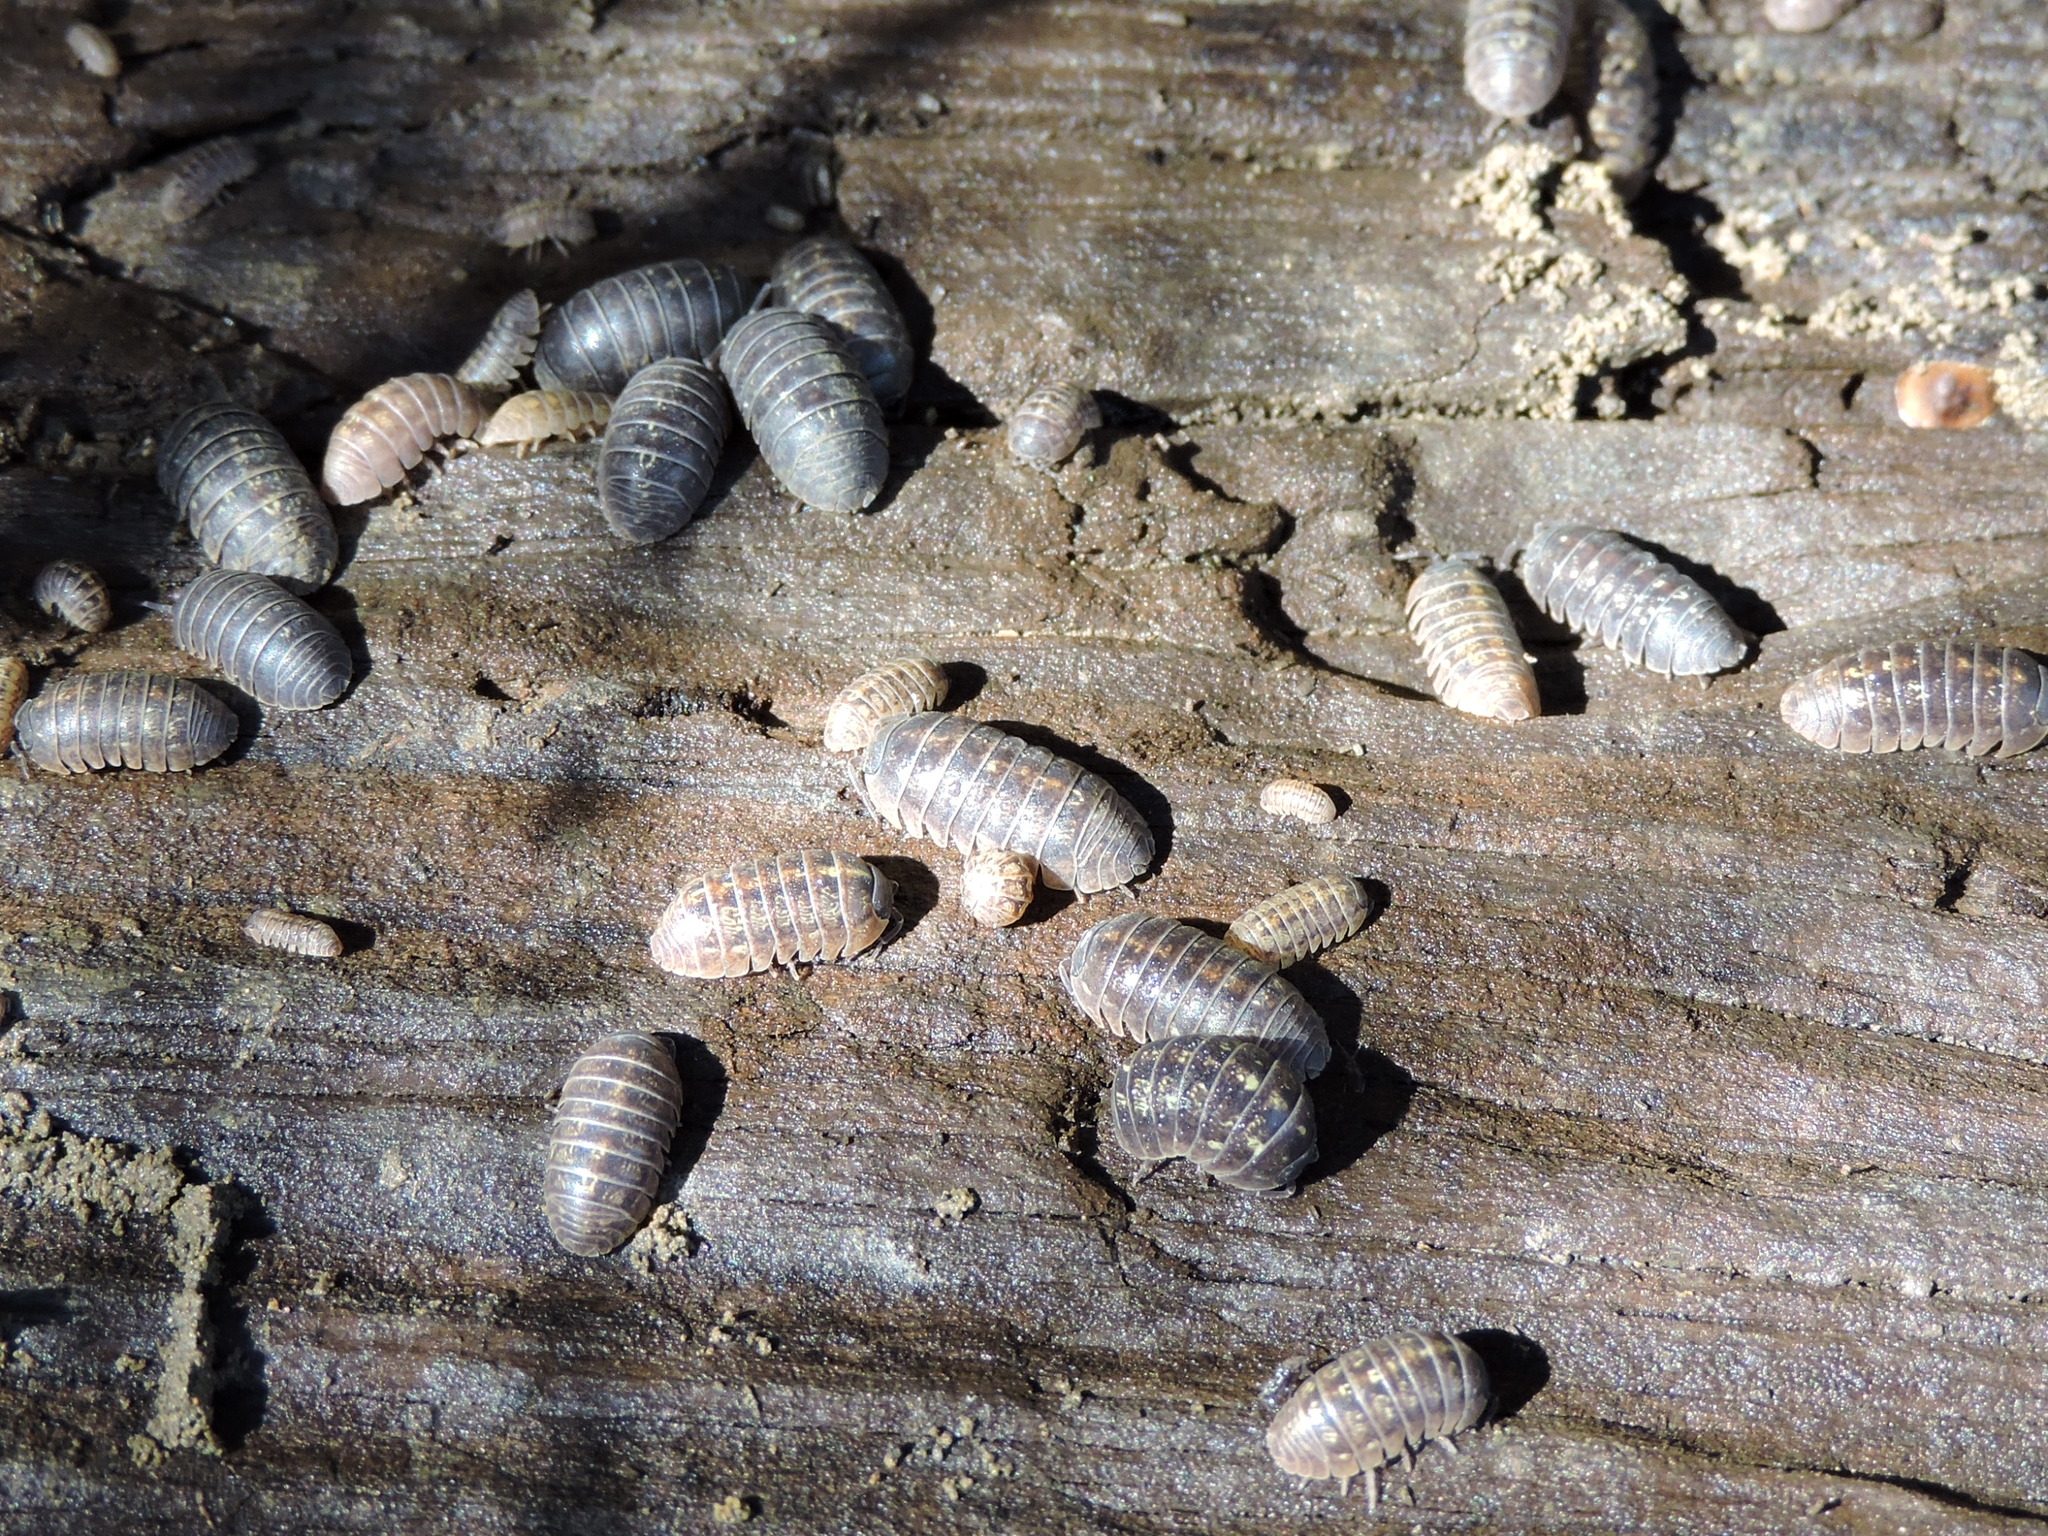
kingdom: Animalia
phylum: Arthropoda
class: Malacostraca
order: Isopoda
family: Armadillidiidae
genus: Armadillidium
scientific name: Armadillidium vulgare
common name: Common pill woodlouse
